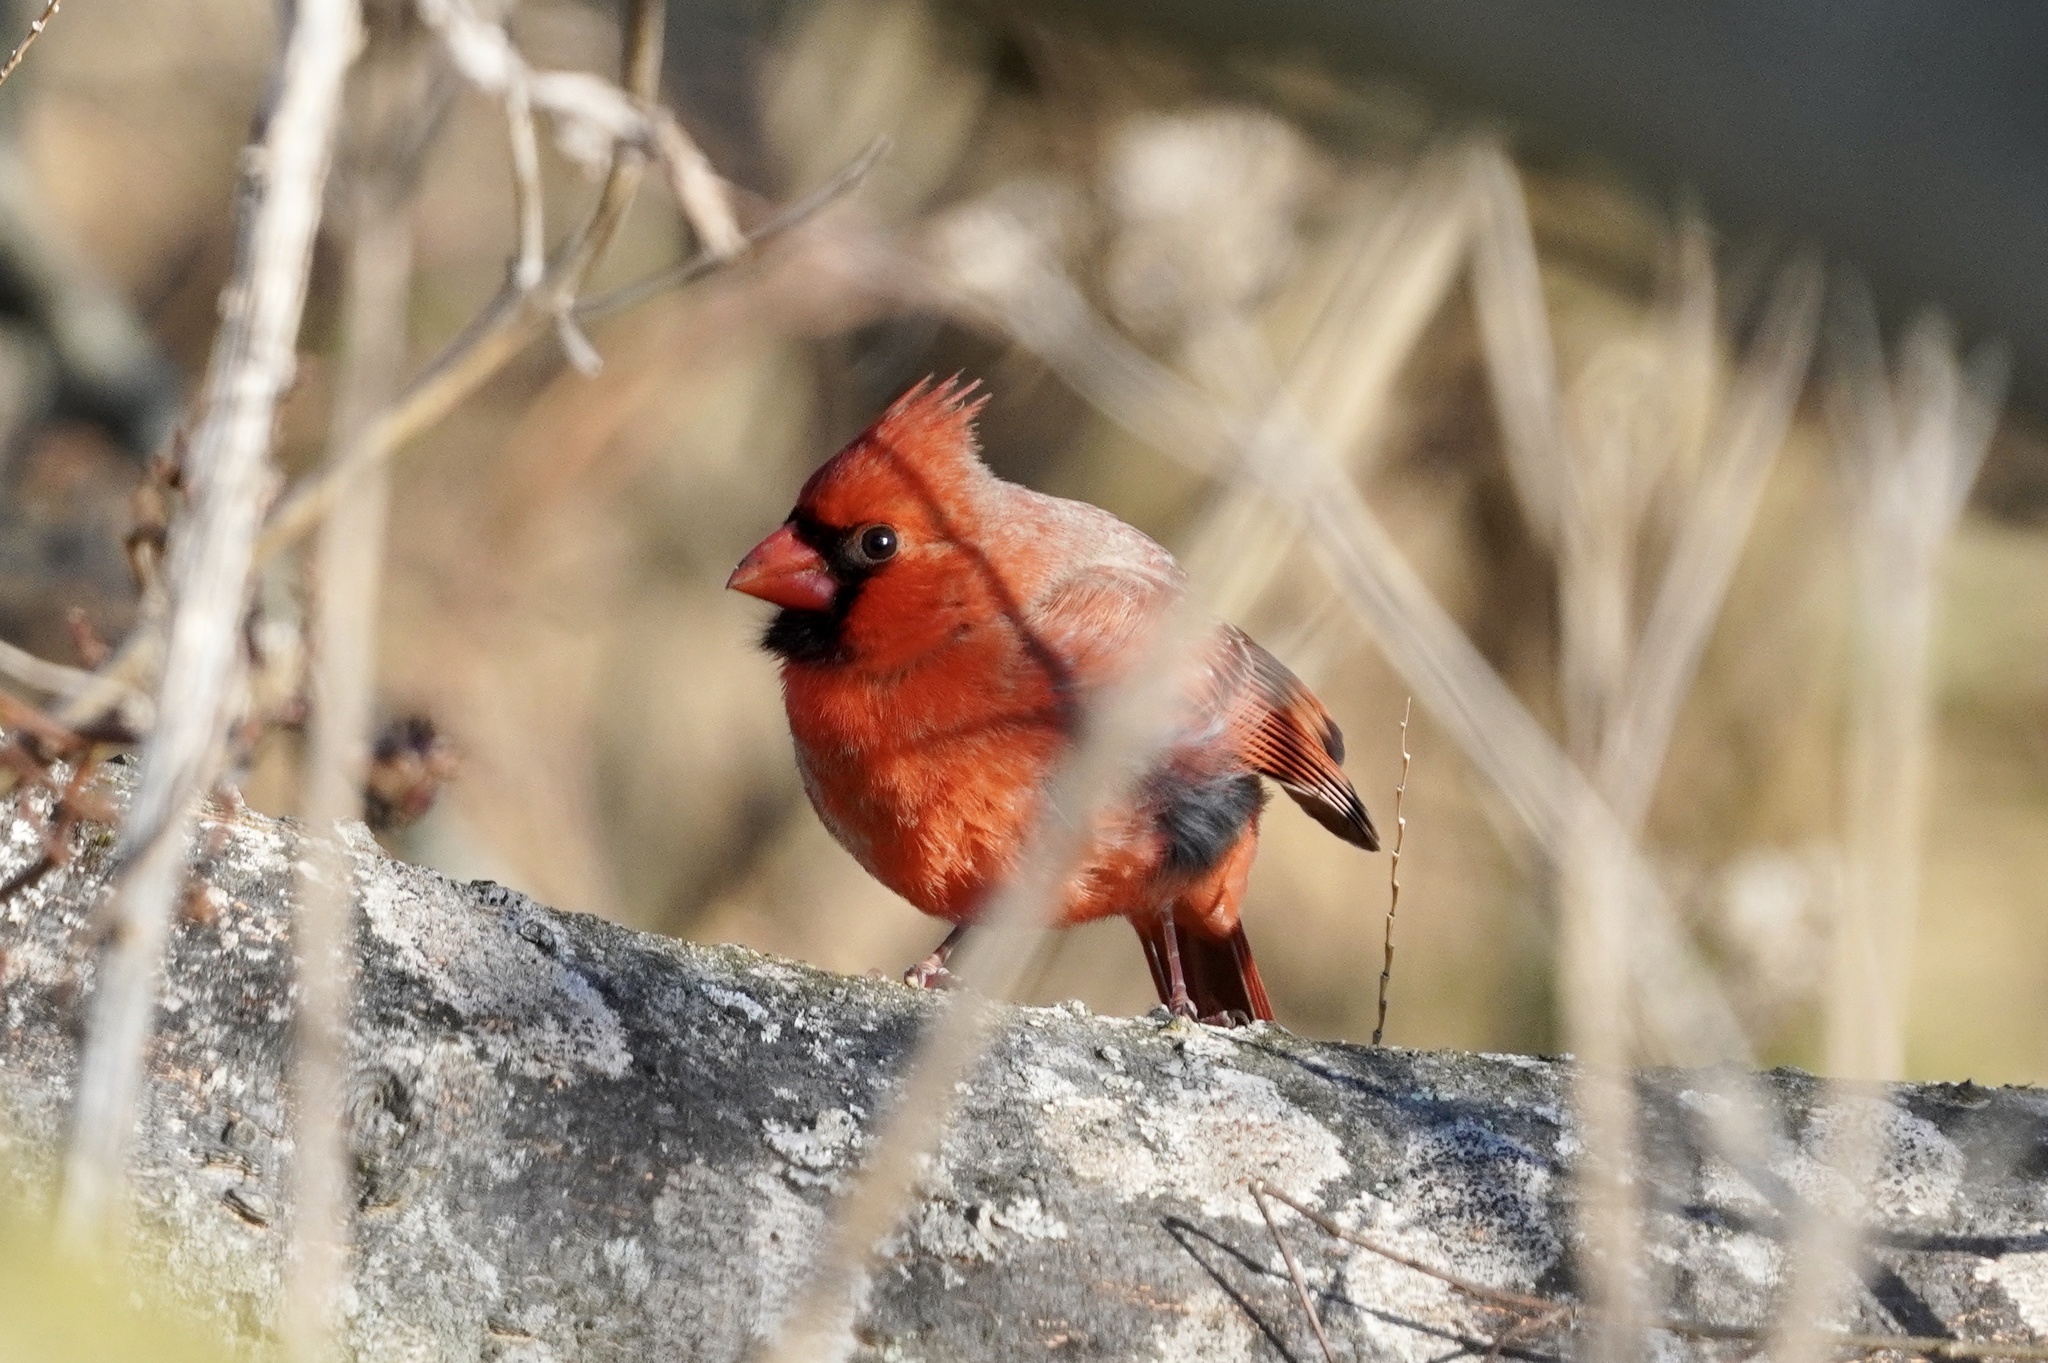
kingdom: Animalia
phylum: Chordata
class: Aves
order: Passeriformes
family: Cardinalidae
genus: Cardinalis
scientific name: Cardinalis cardinalis
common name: Northern cardinal
